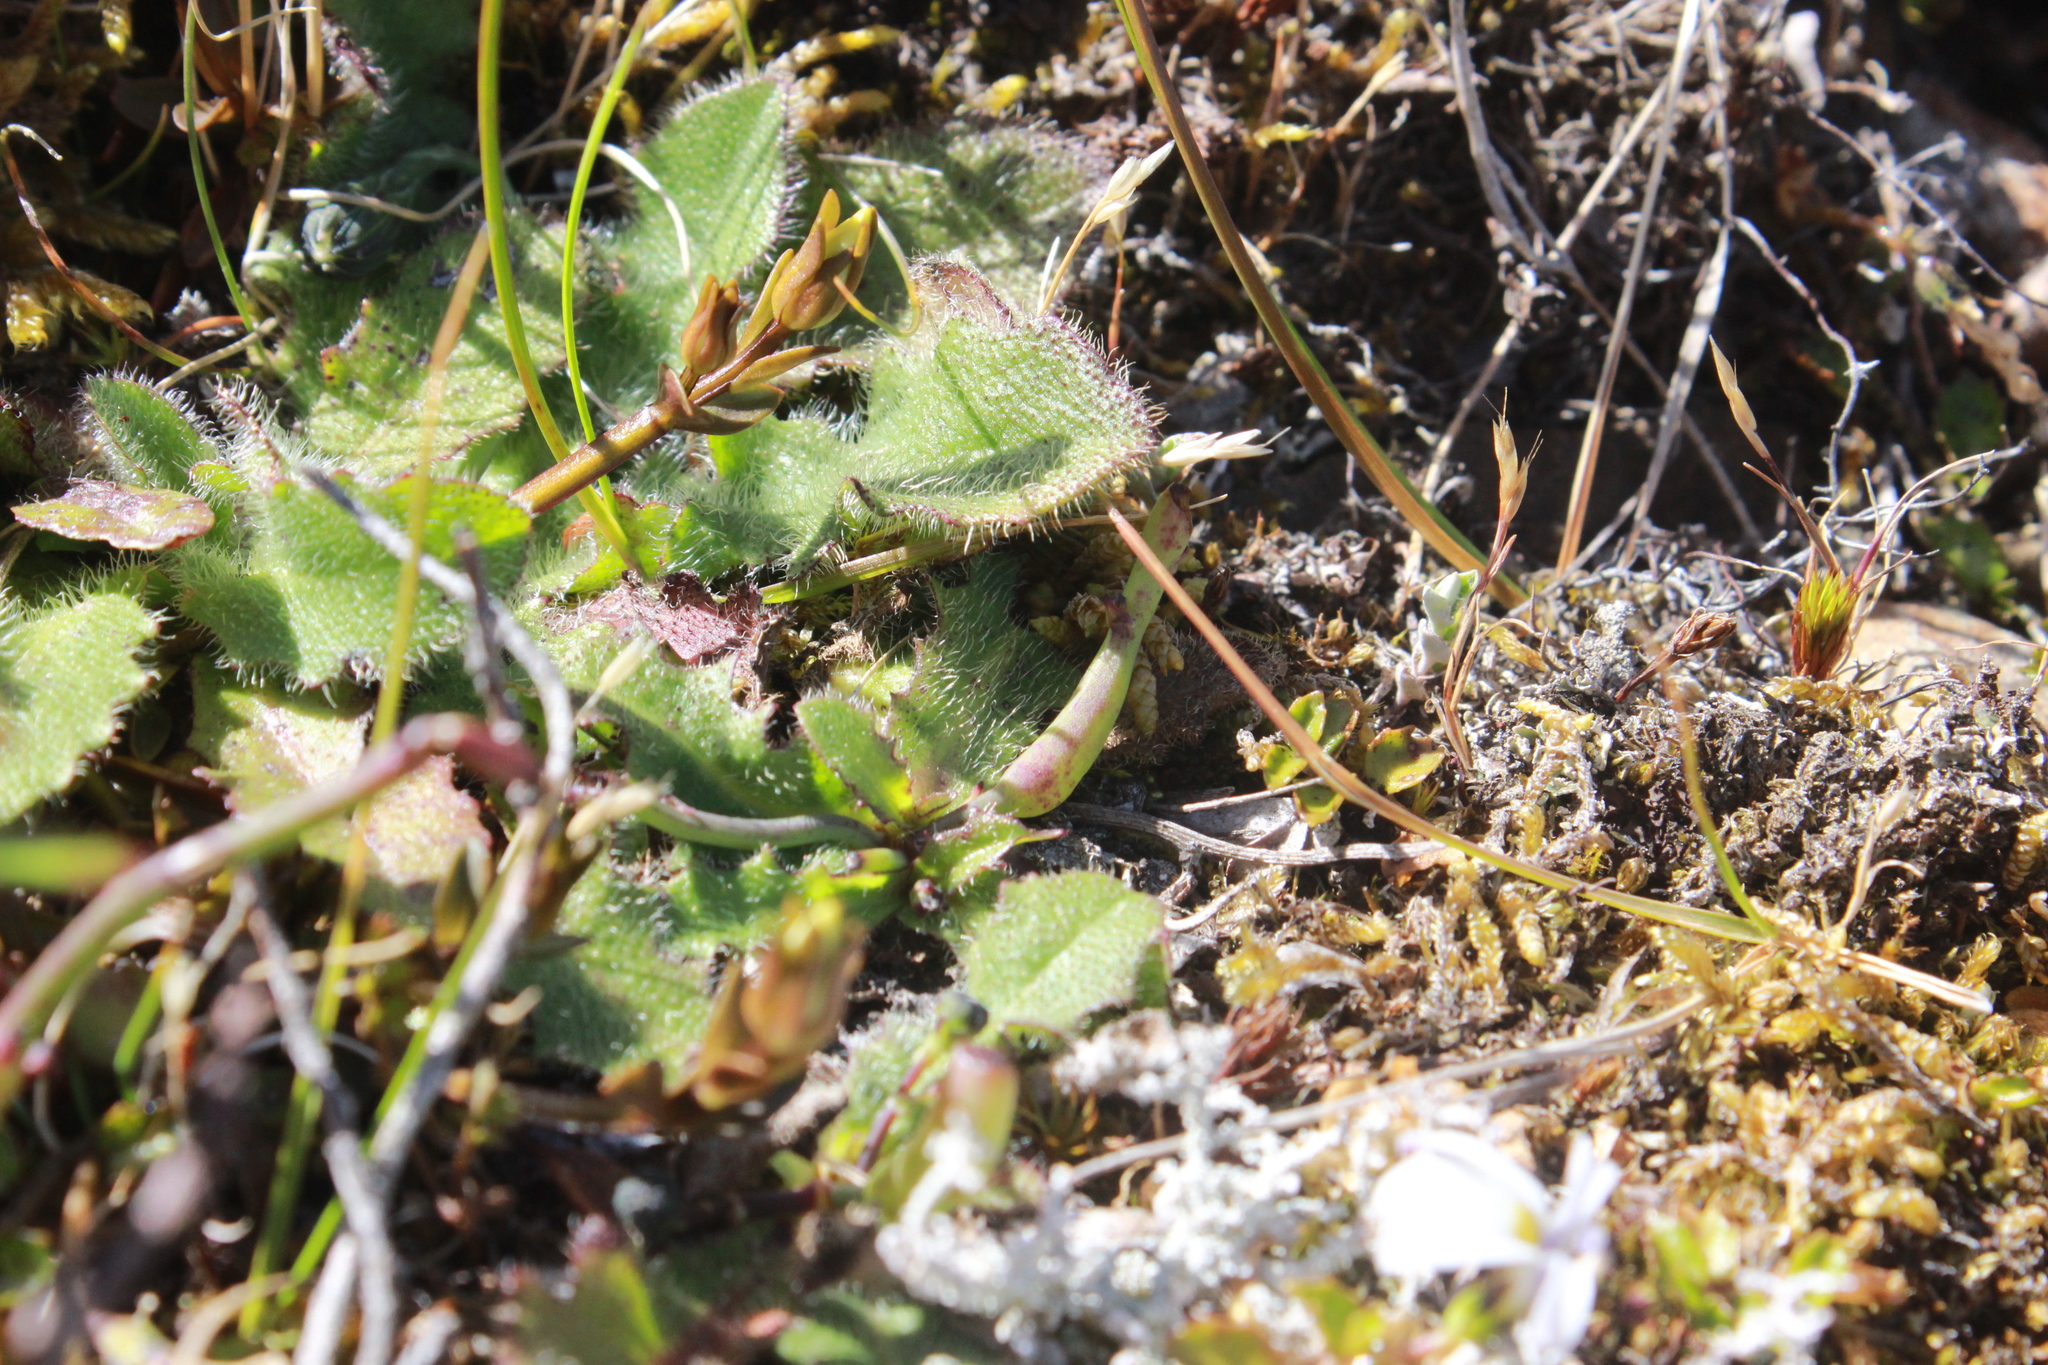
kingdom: Animalia
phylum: Arthropoda
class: Insecta
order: Hymenoptera
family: Cynipidae
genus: Phanacis
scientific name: Phanacis hypochoeridis
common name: Gall wasp
